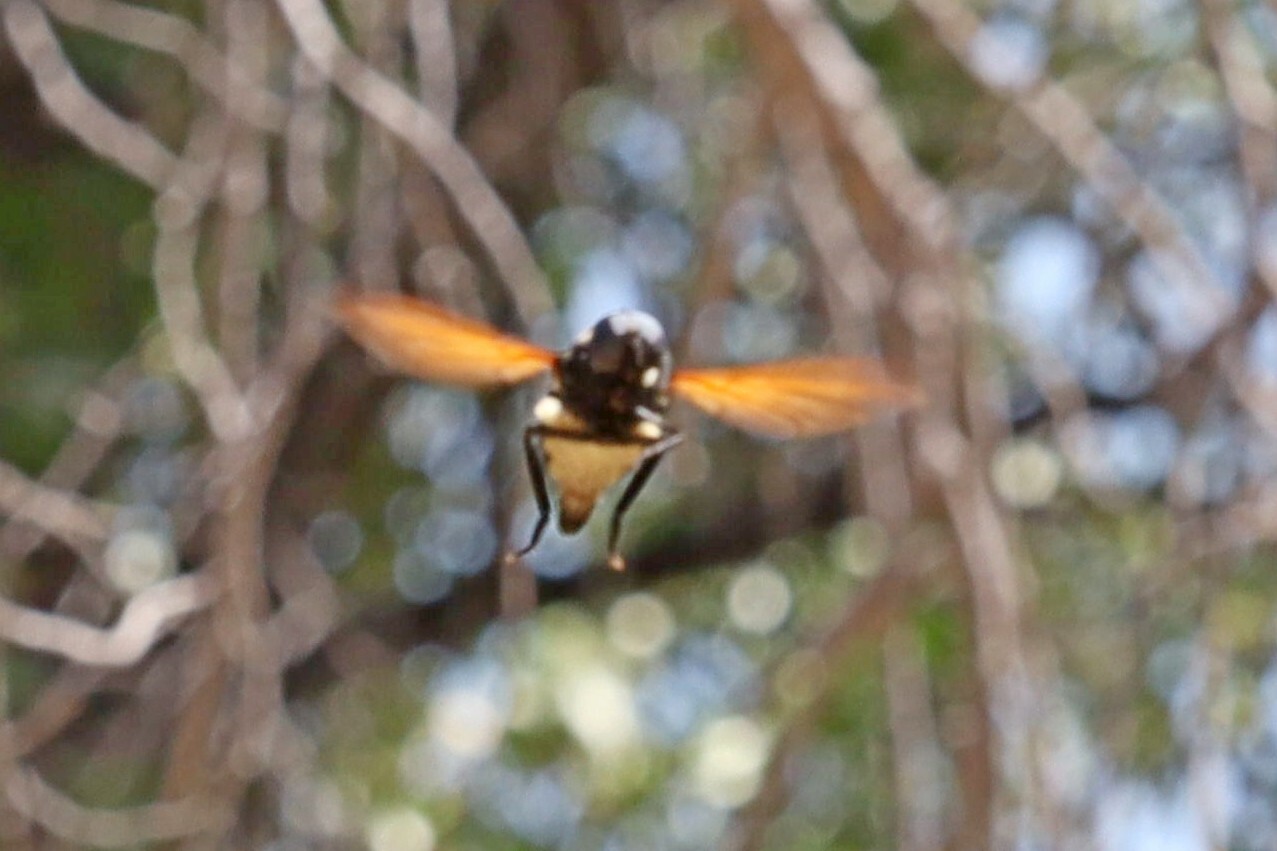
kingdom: Animalia
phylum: Arthropoda
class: Insecta
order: Diptera
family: Nemestrinidae
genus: Hirmoneuropsis
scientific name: Hirmoneuropsis
